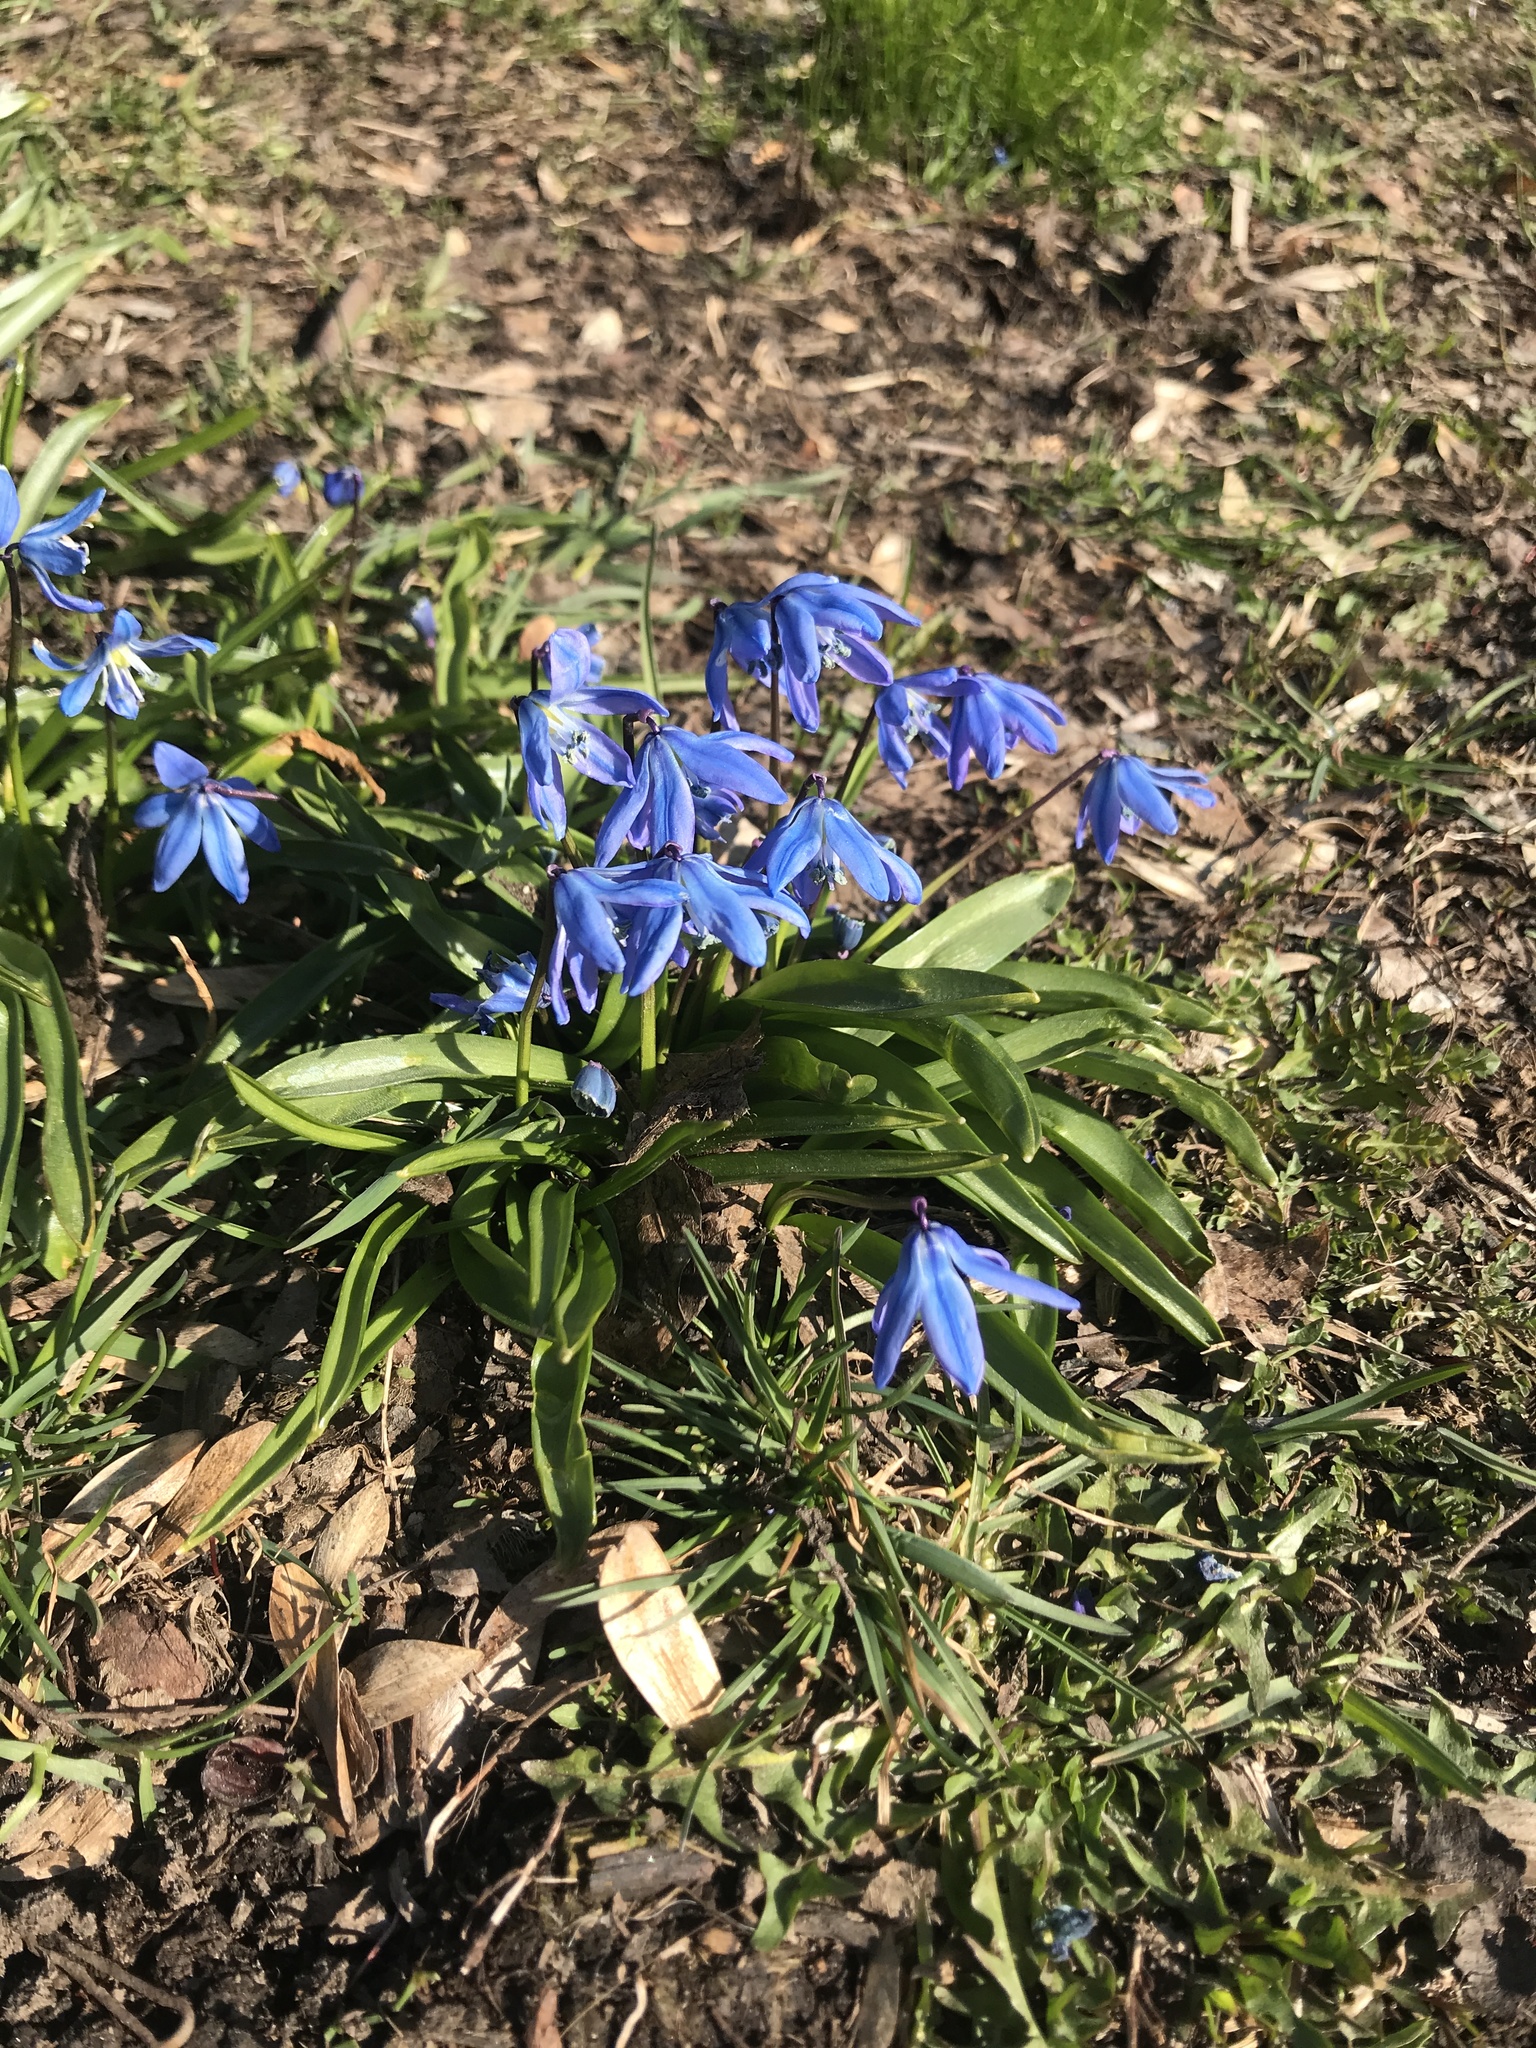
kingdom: Plantae
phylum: Tracheophyta
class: Liliopsida
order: Asparagales
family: Asparagaceae
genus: Scilla
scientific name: Scilla siberica
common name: Siberian squill
